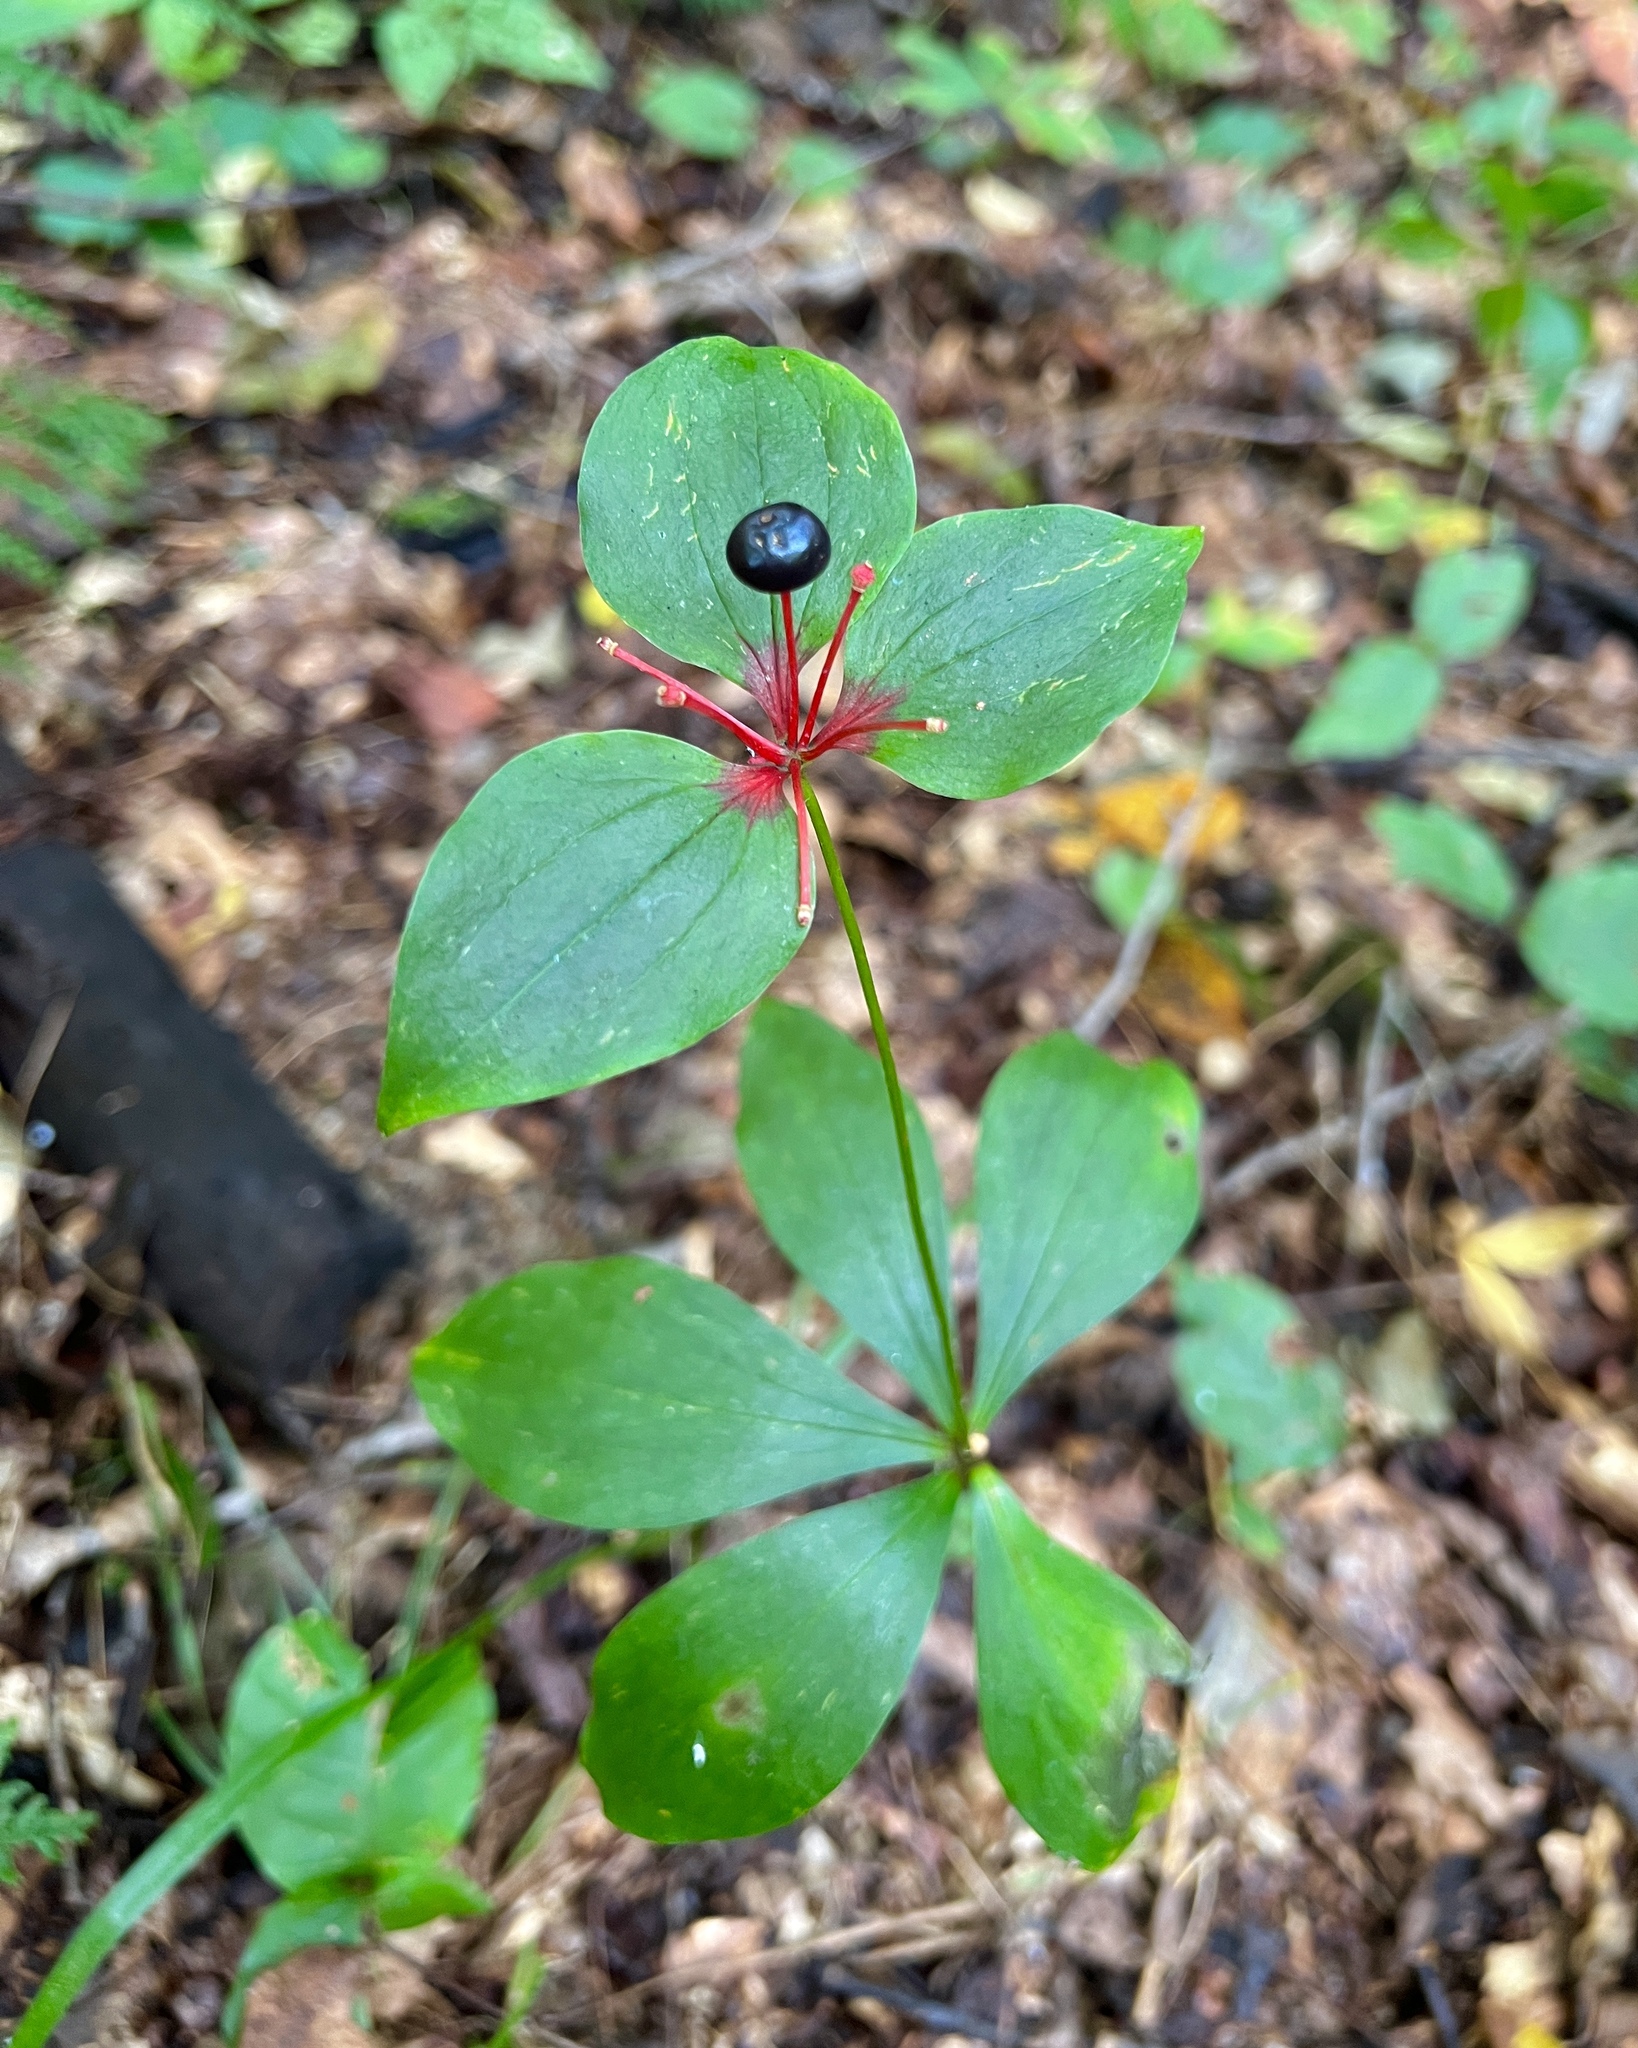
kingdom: Plantae
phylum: Tracheophyta
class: Liliopsida
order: Liliales
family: Liliaceae
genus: Medeola
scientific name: Medeola virginiana
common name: Indian cucumber-root
